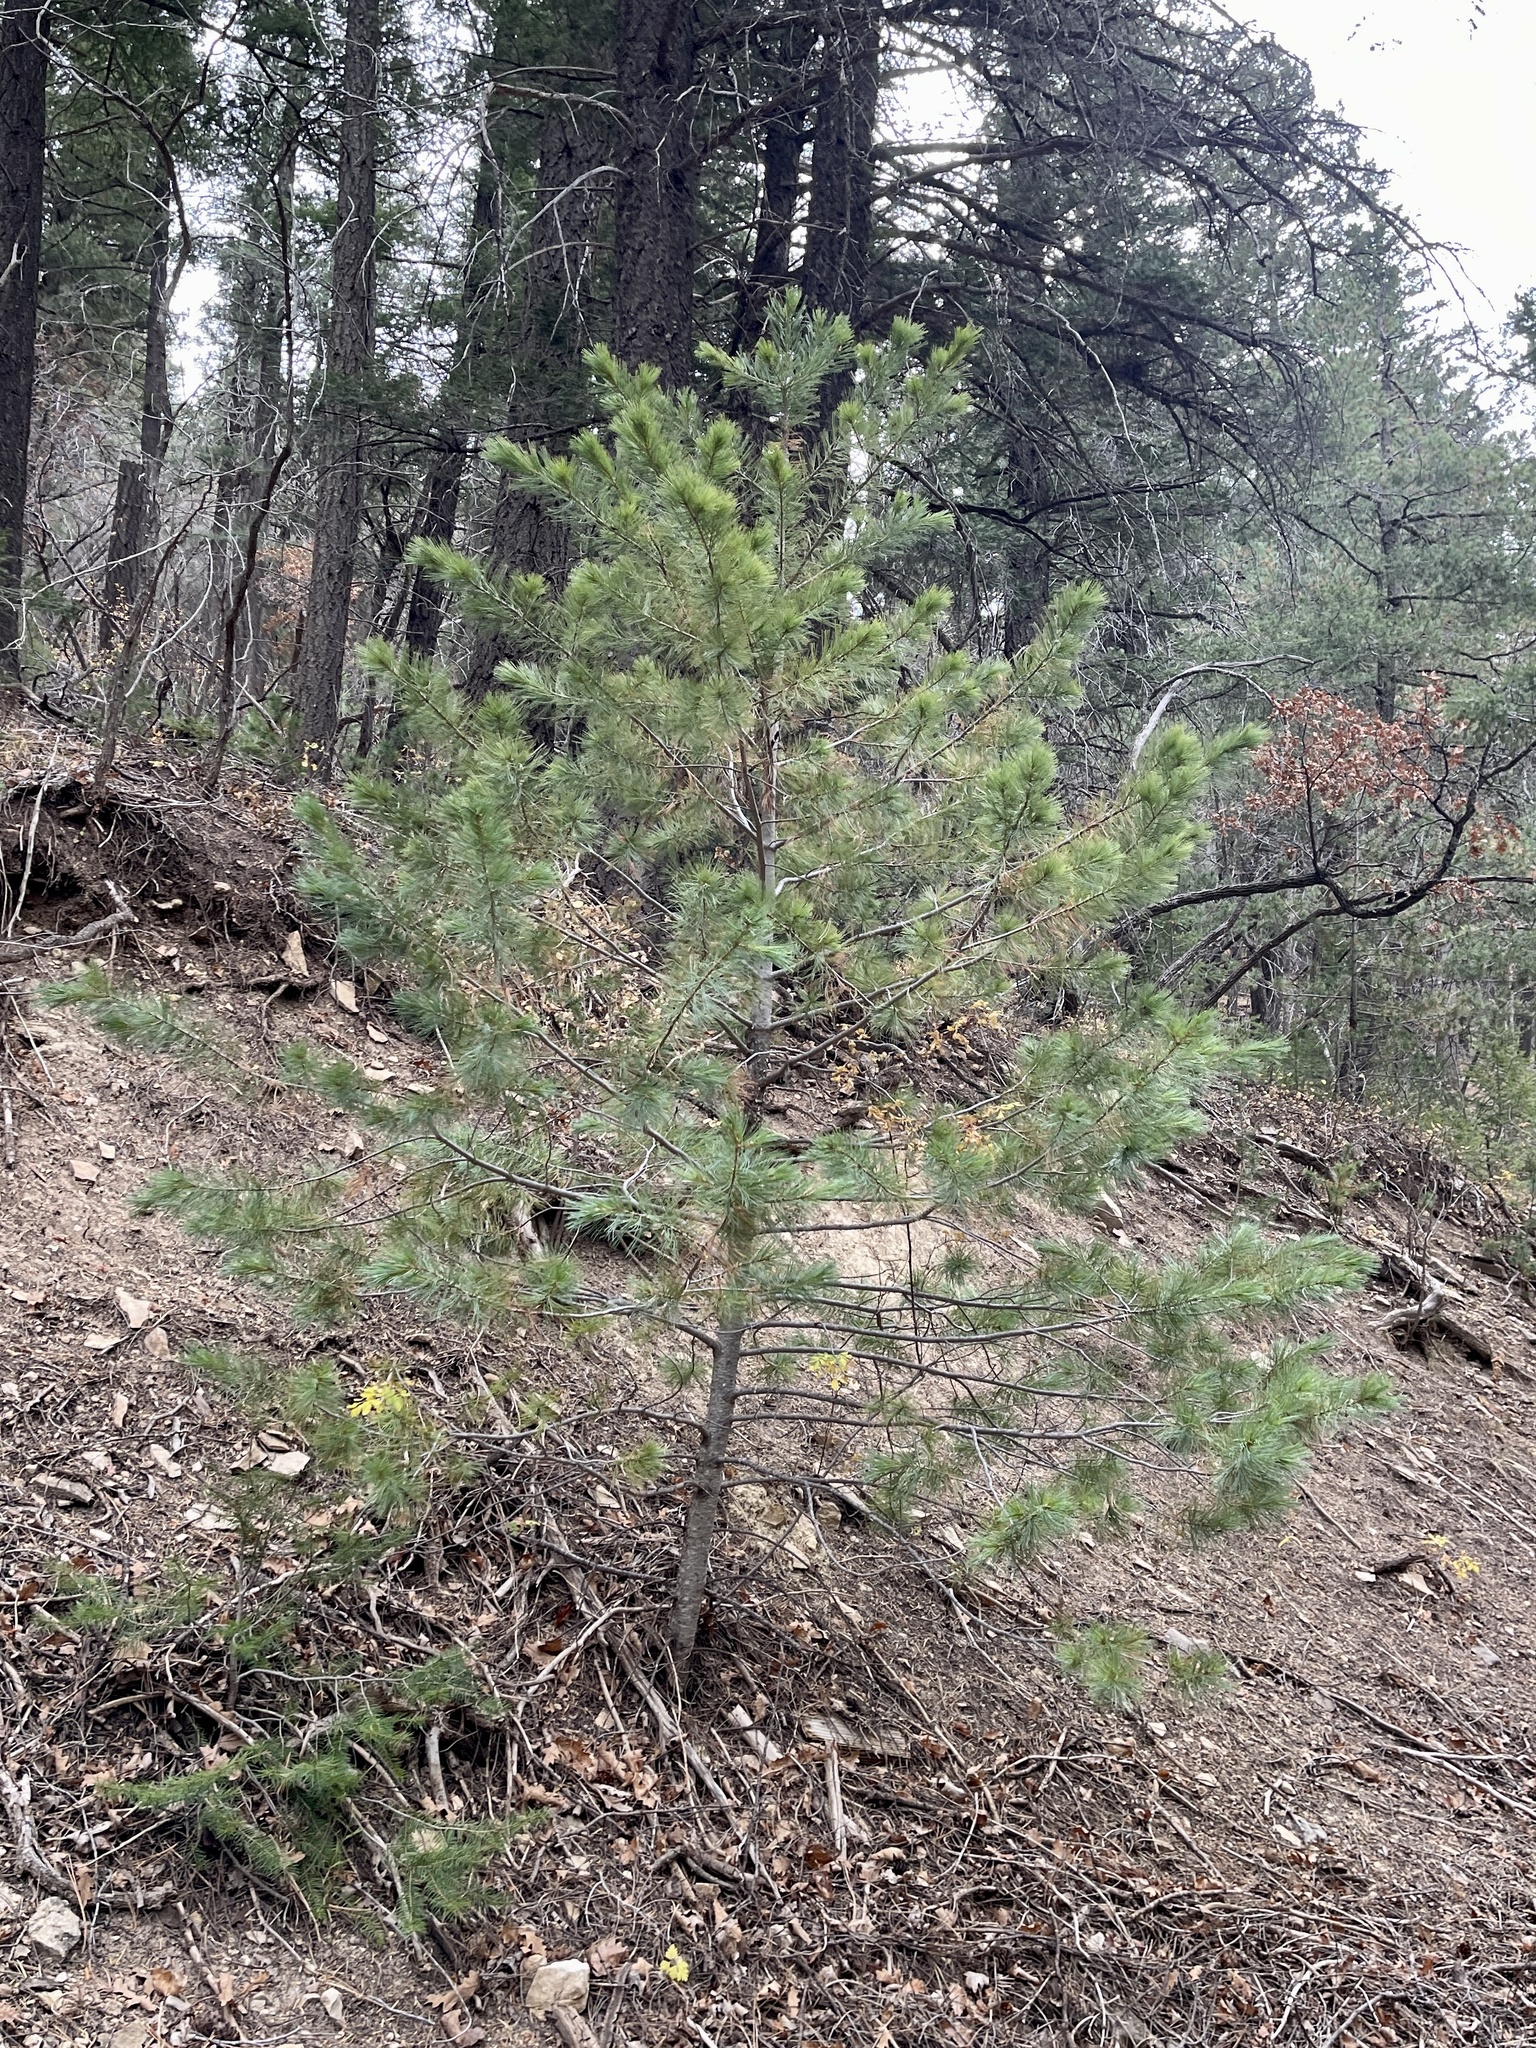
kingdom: Plantae
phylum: Tracheophyta
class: Pinopsida
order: Pinales
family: Pinaceae
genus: Pinus
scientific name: Pinus strobiformis
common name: Southwestern white pine
